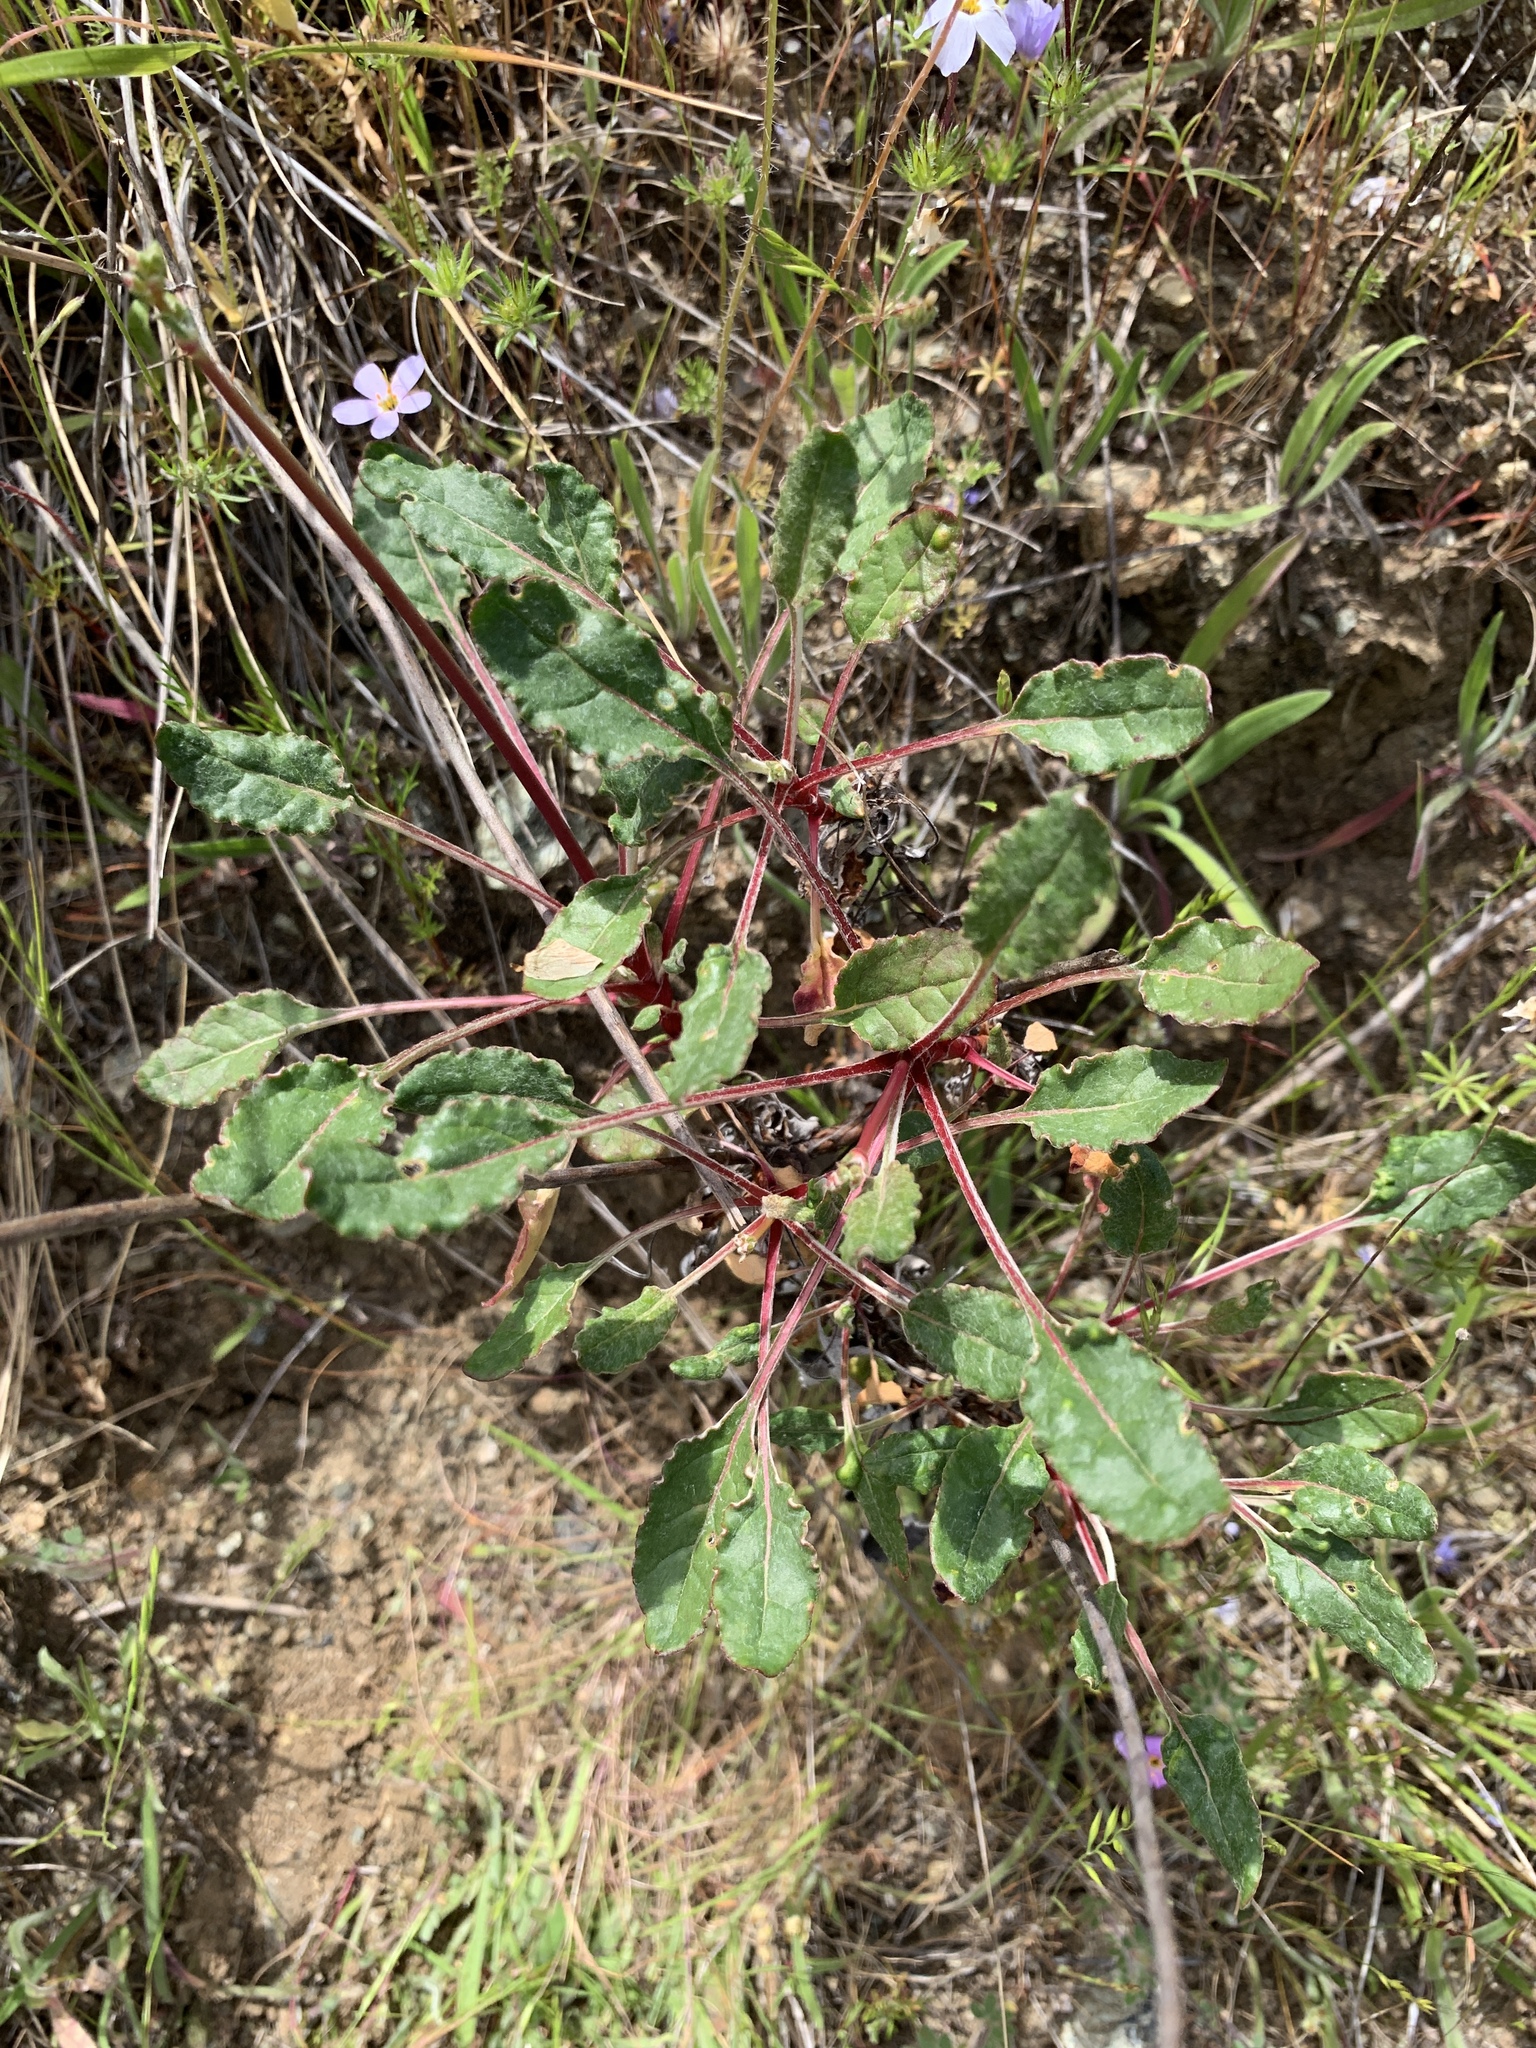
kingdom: Plantae
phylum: Tracheophyta
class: Magnoliopsida
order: Caryophyllales
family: Polygonaceae
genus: Eriogonum
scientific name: Eriogonum nudum
